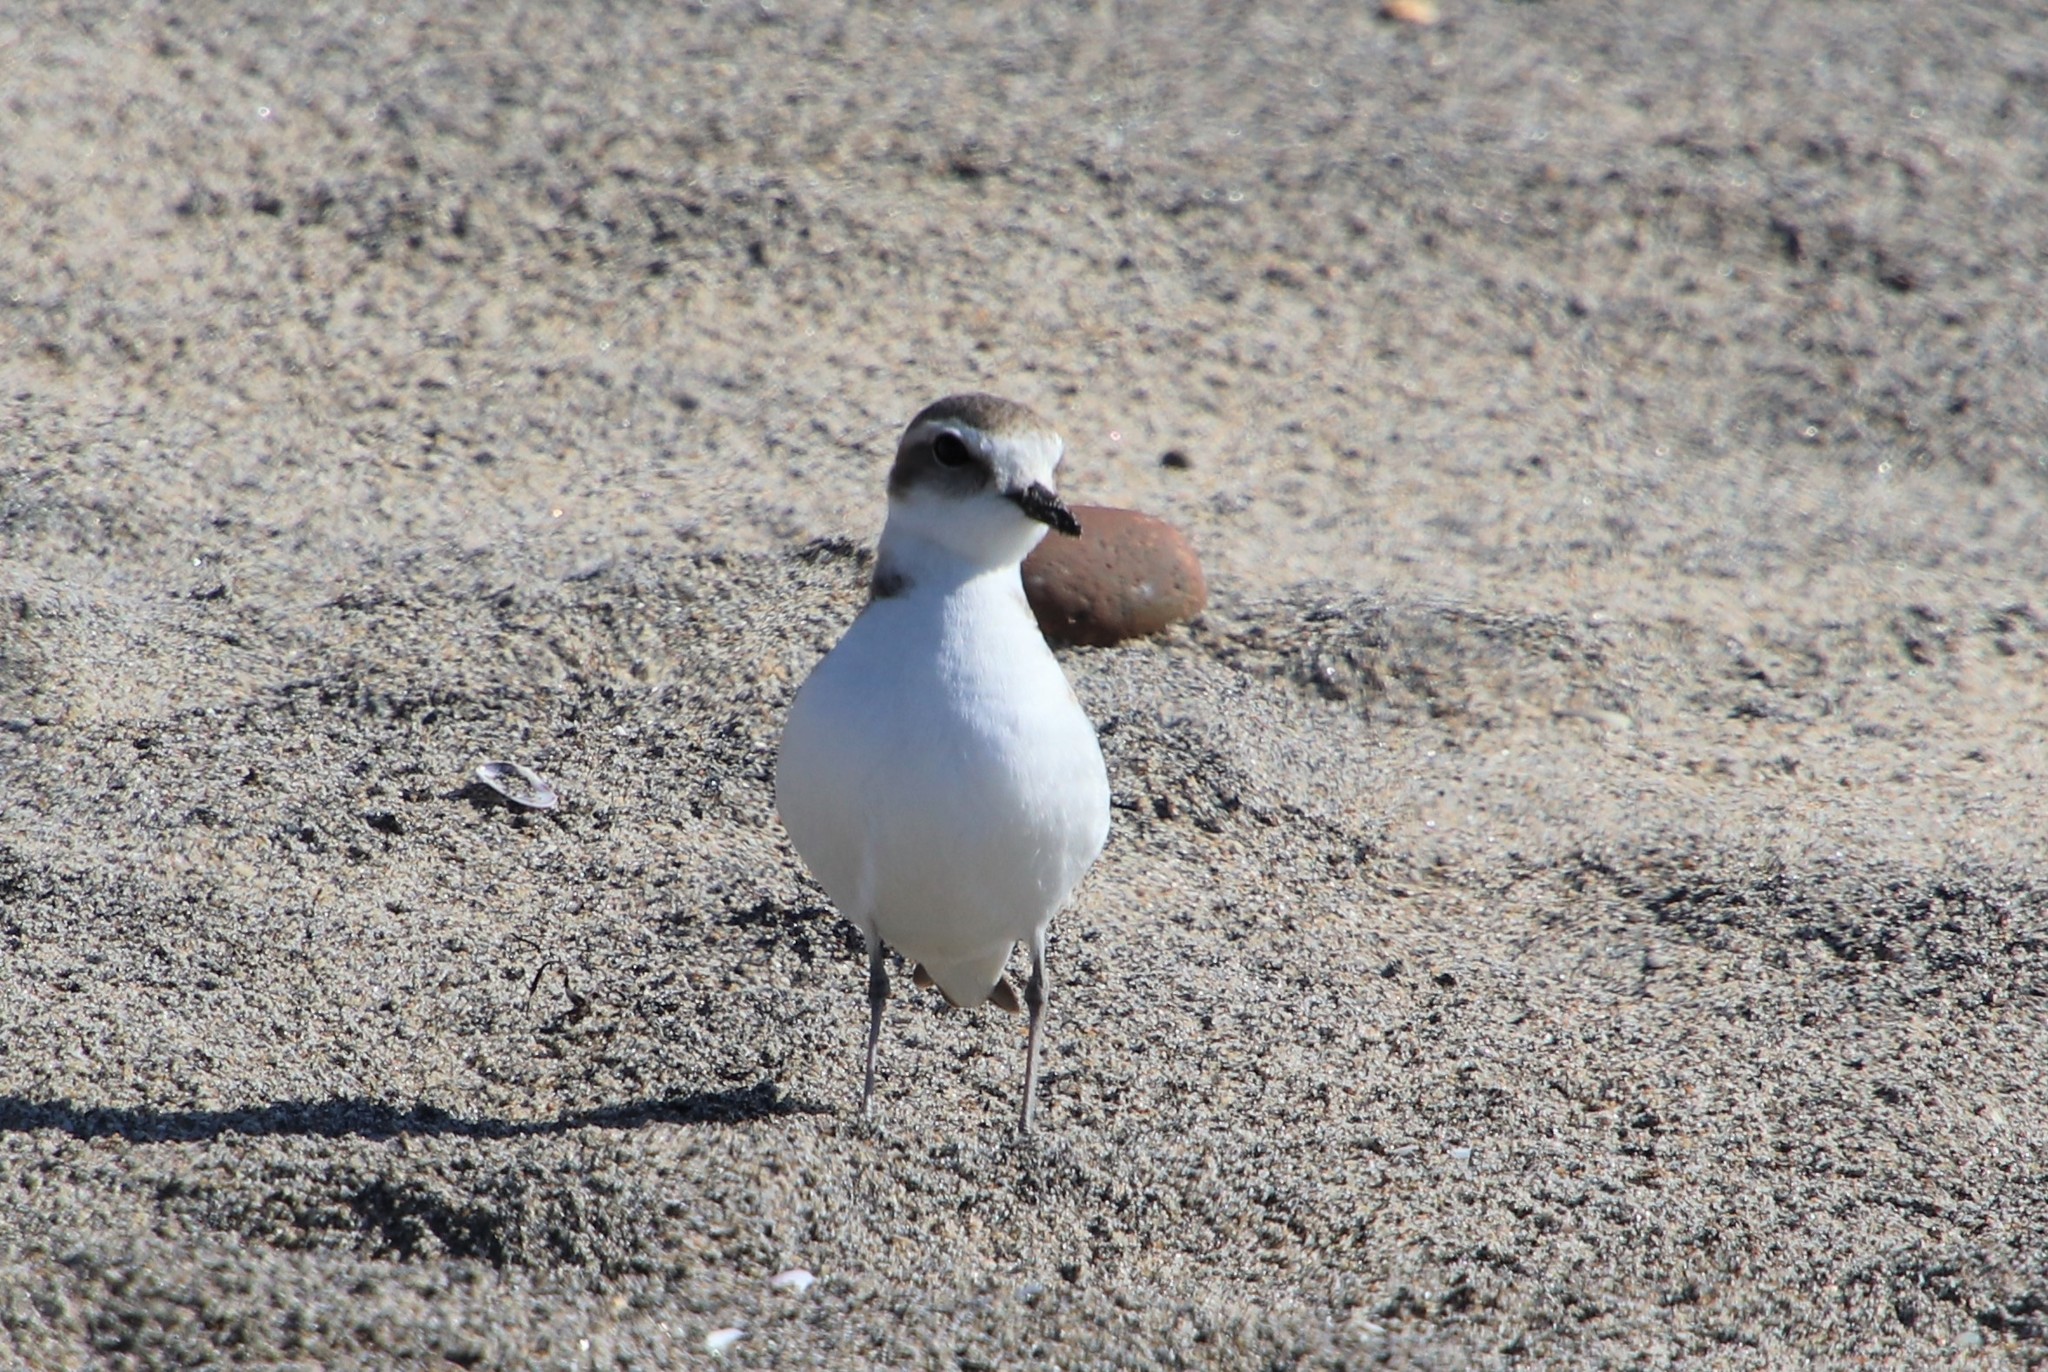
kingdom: Animalia
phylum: Chordata
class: Aves
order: Charadriiformes
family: Charadriidae
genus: Anarhynchus
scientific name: Anarhynchus
